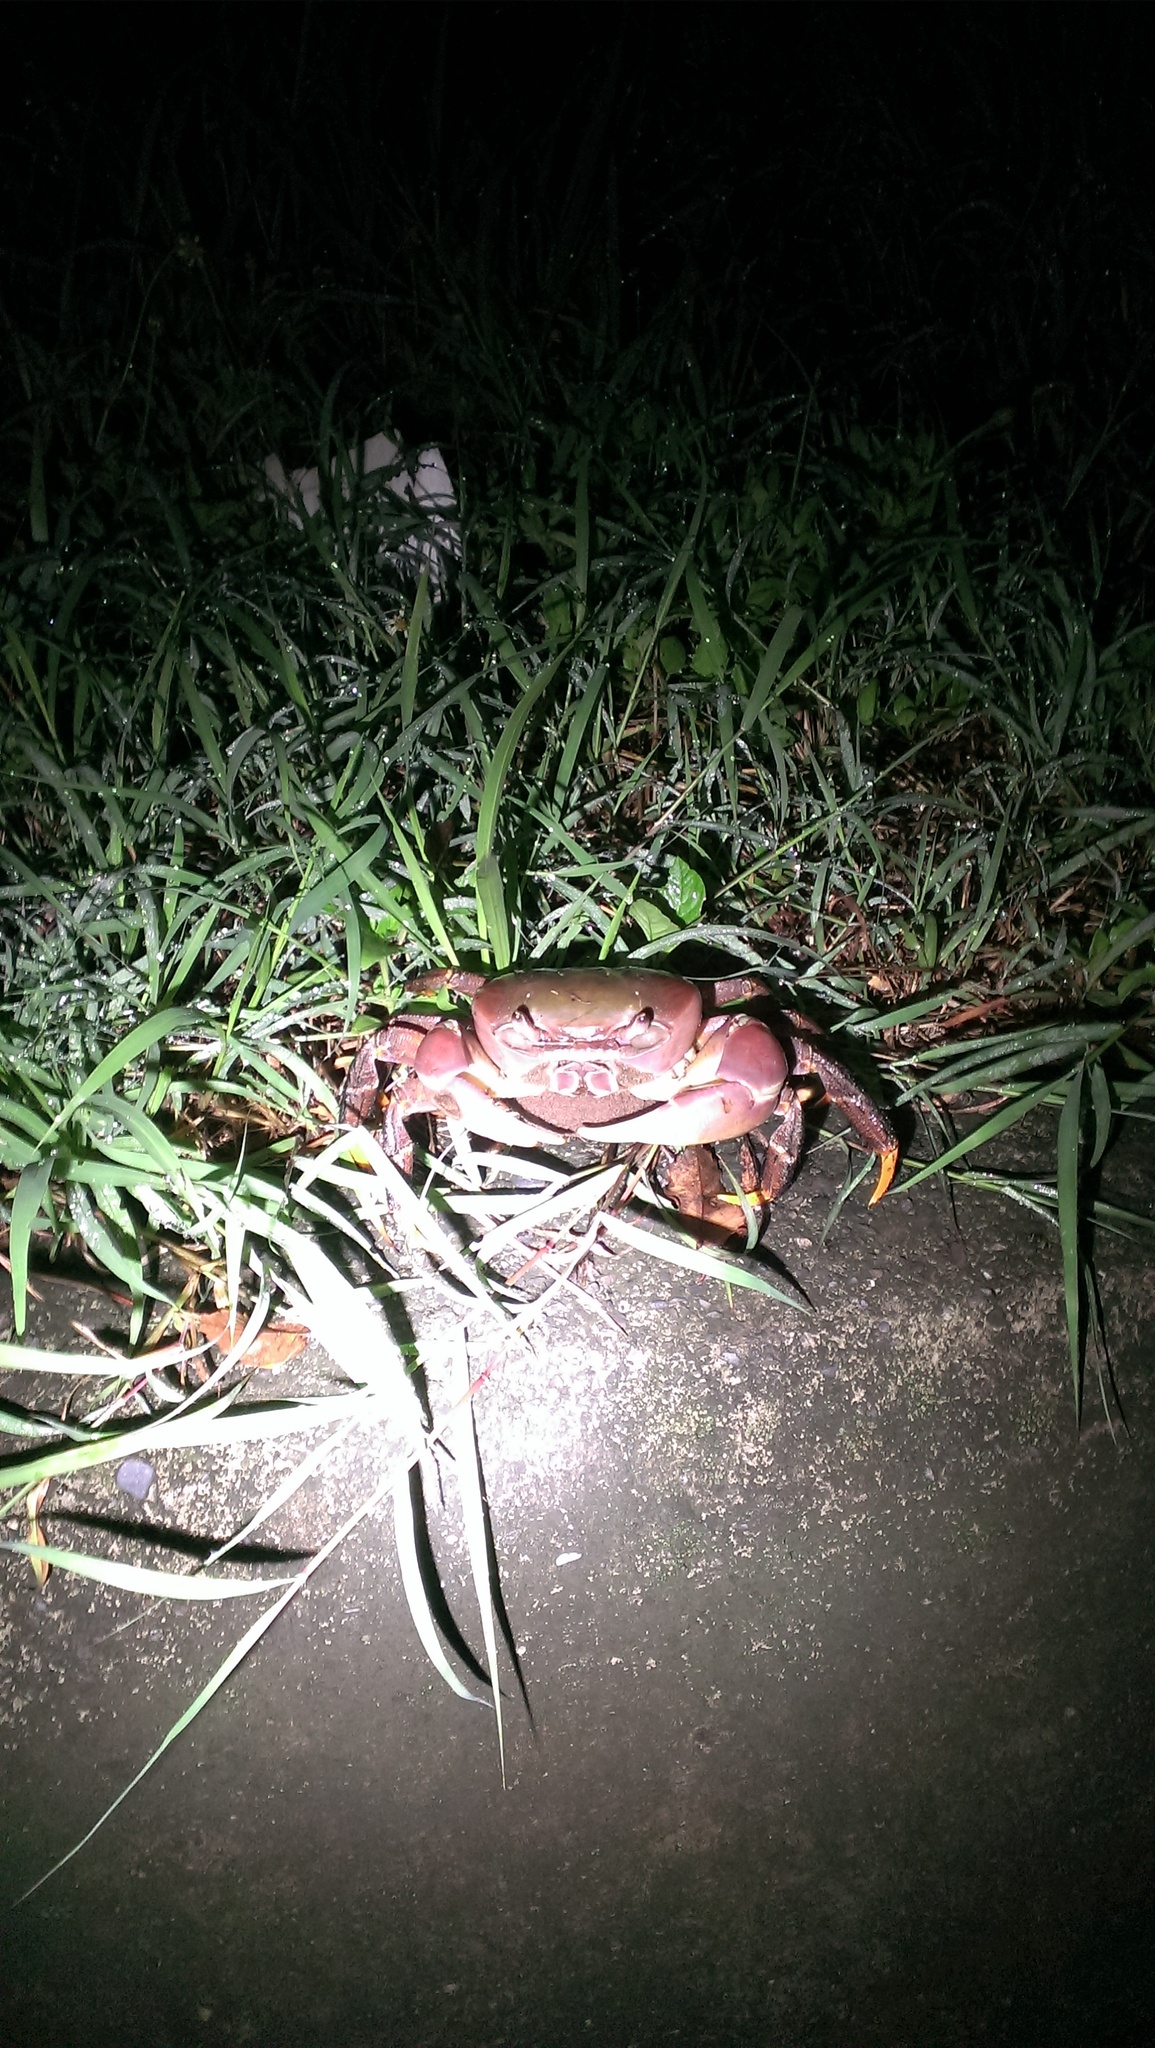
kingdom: Animalia
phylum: Arthropoda
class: Malacostraca
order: Decapoda
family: Gecarcinidae
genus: Cardisoma
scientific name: Cardisoma carnifex
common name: Brown land crab
